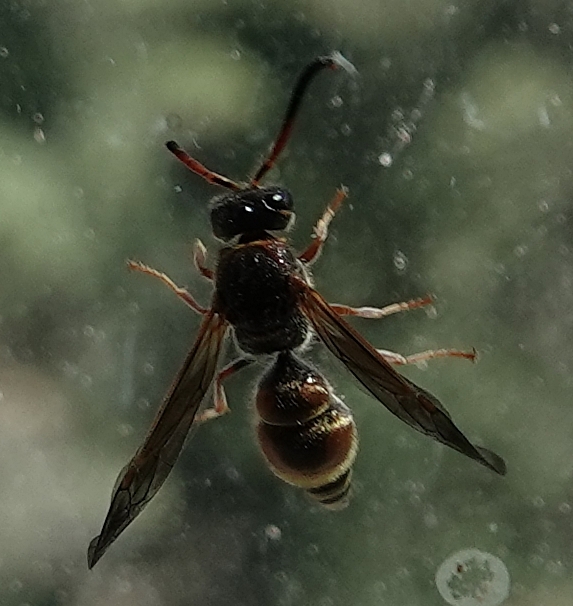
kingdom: Animalia
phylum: Arthropoda
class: Insecta
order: Hymenoptera
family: Vespidae
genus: Ancistrocerus
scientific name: Ancistrocerus tuberculocephalus
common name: Vespid wasp
